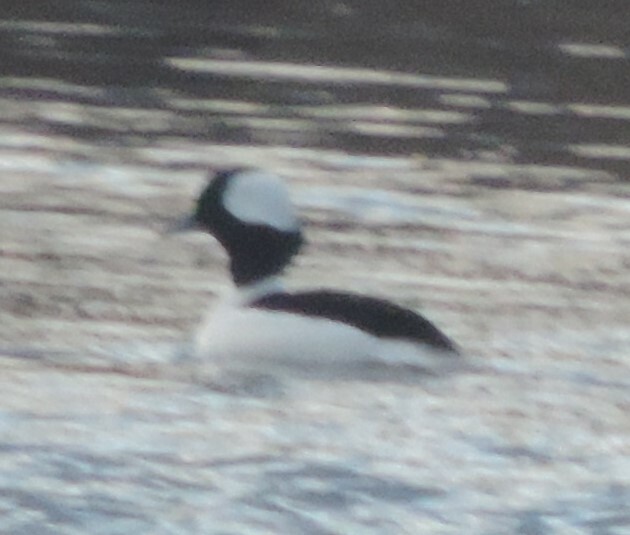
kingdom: Animalia
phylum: Chordata
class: Aves
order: Anseriformes
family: Anatidae
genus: Bucephala
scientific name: Bucephala albeola
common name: Bufflehead
